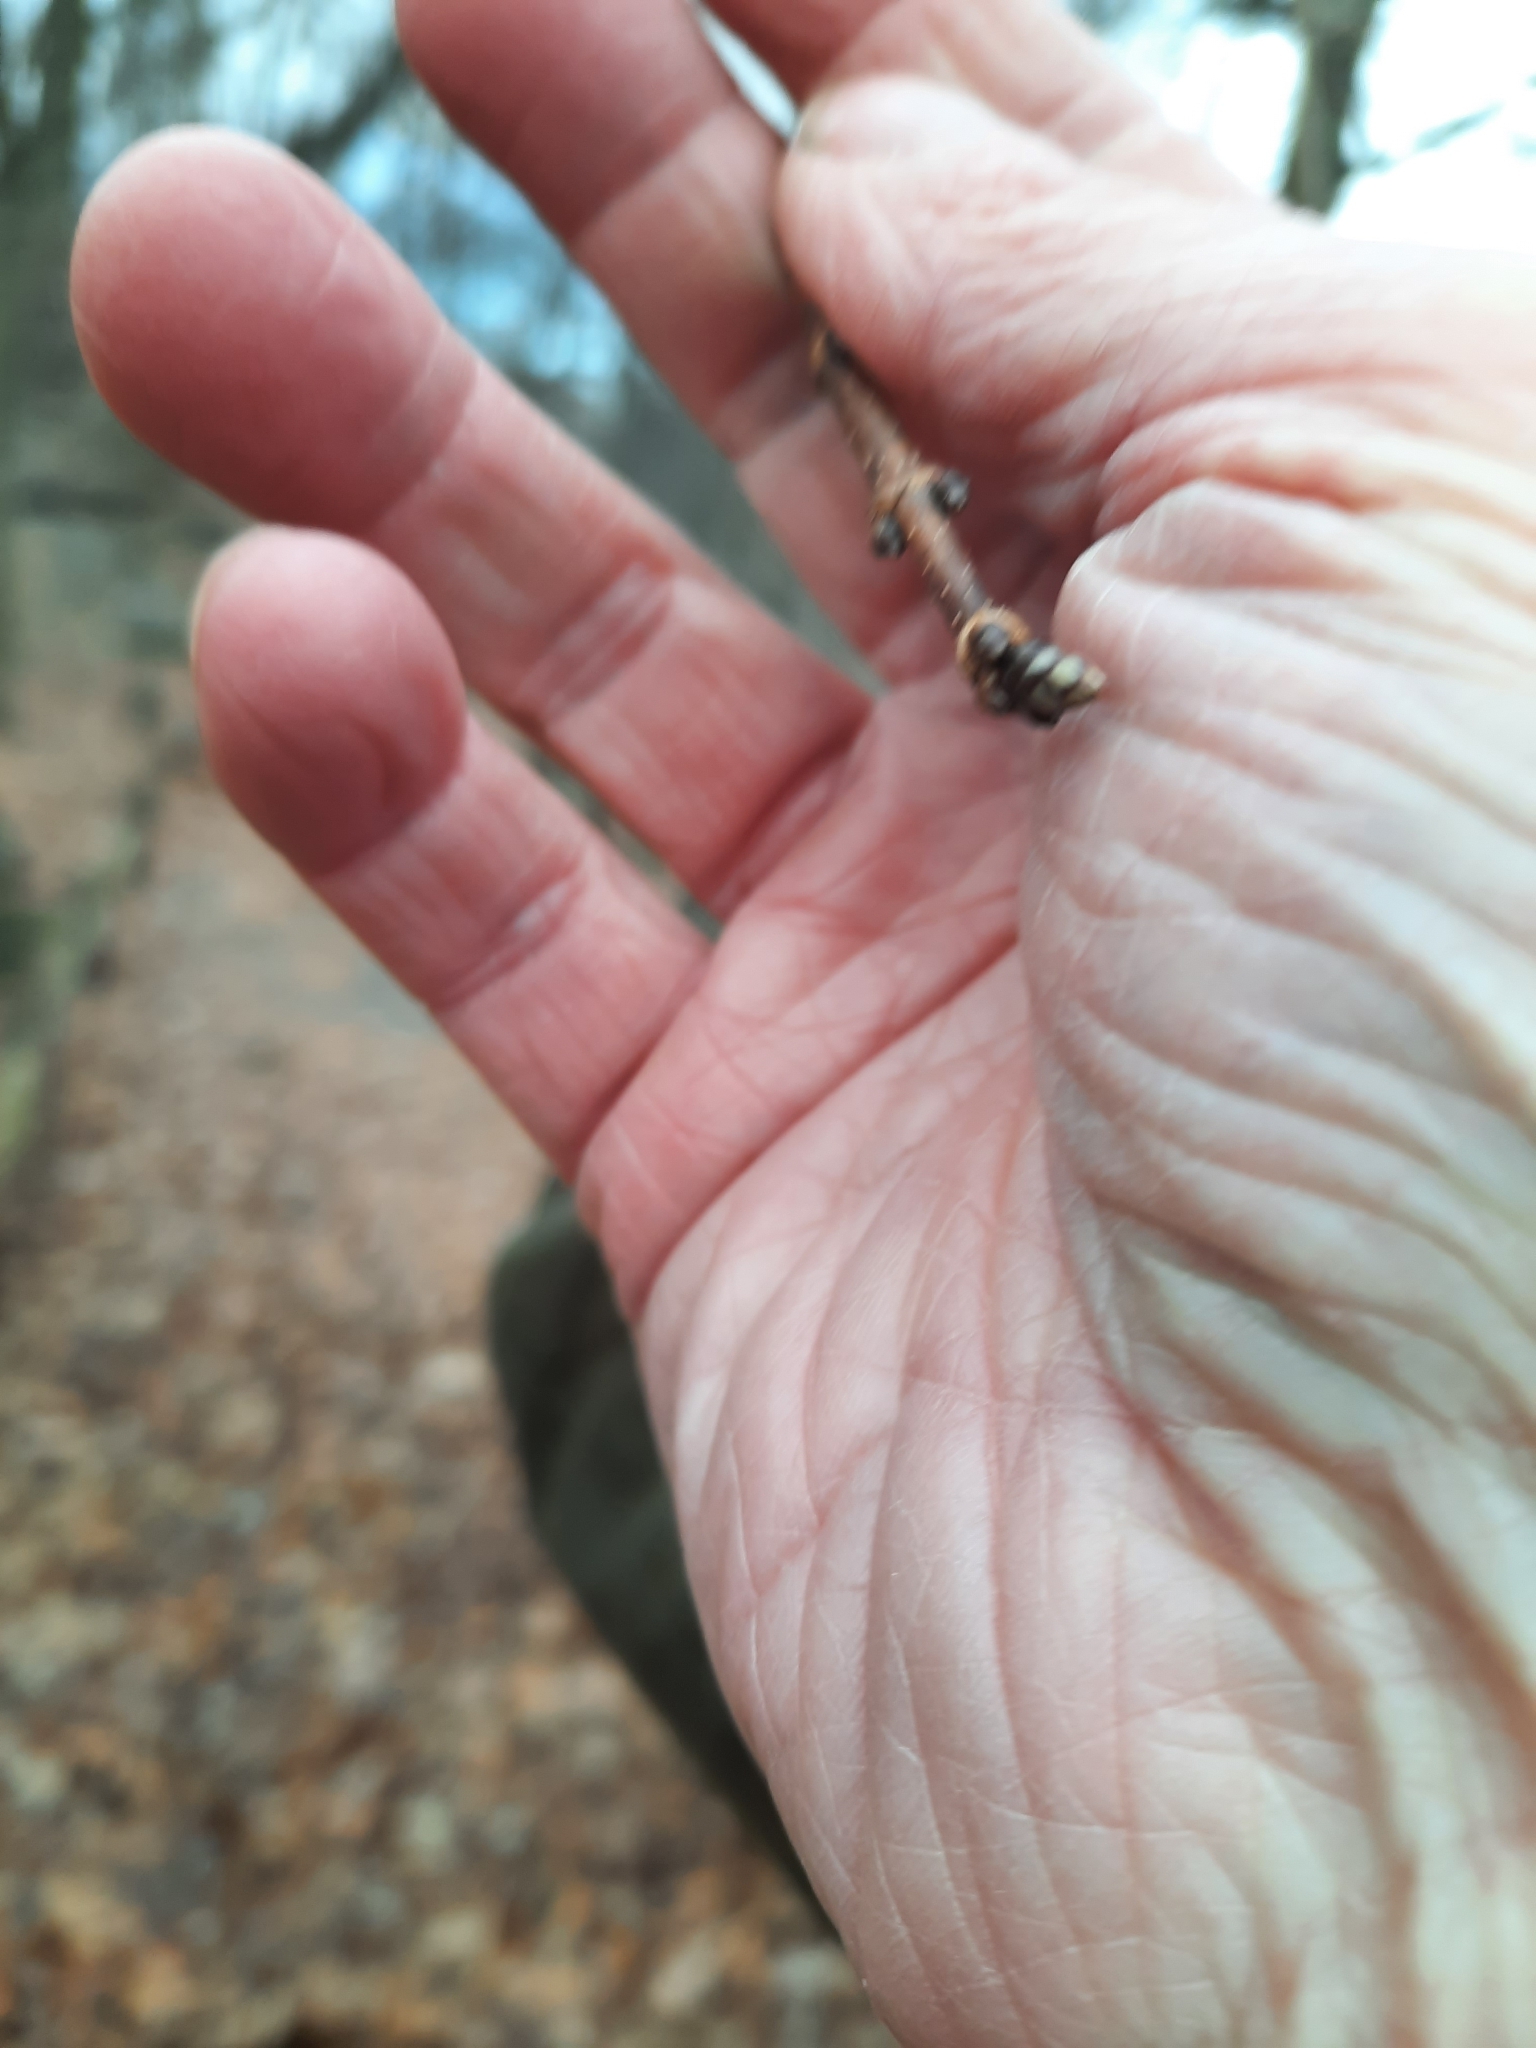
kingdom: Plantae
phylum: Tracheophyta
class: Magnoliopsida
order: Sapindales
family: Sapindaceae
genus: Acer
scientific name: Acer saccharum
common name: Sugar maple
